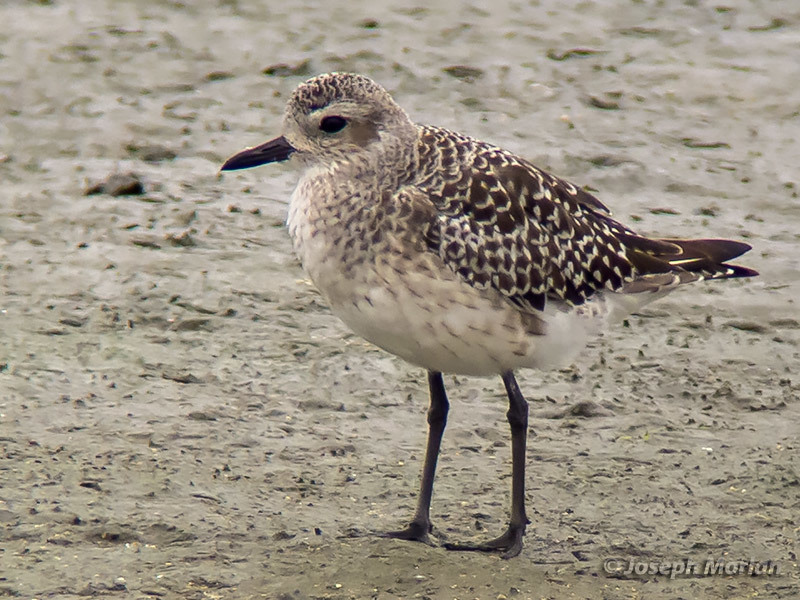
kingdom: Animalia
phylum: Chordata
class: Aves
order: Charadriiformes
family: Charadriidae
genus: Pluvialis
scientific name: Pluvialis squatarola
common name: Grey plover
